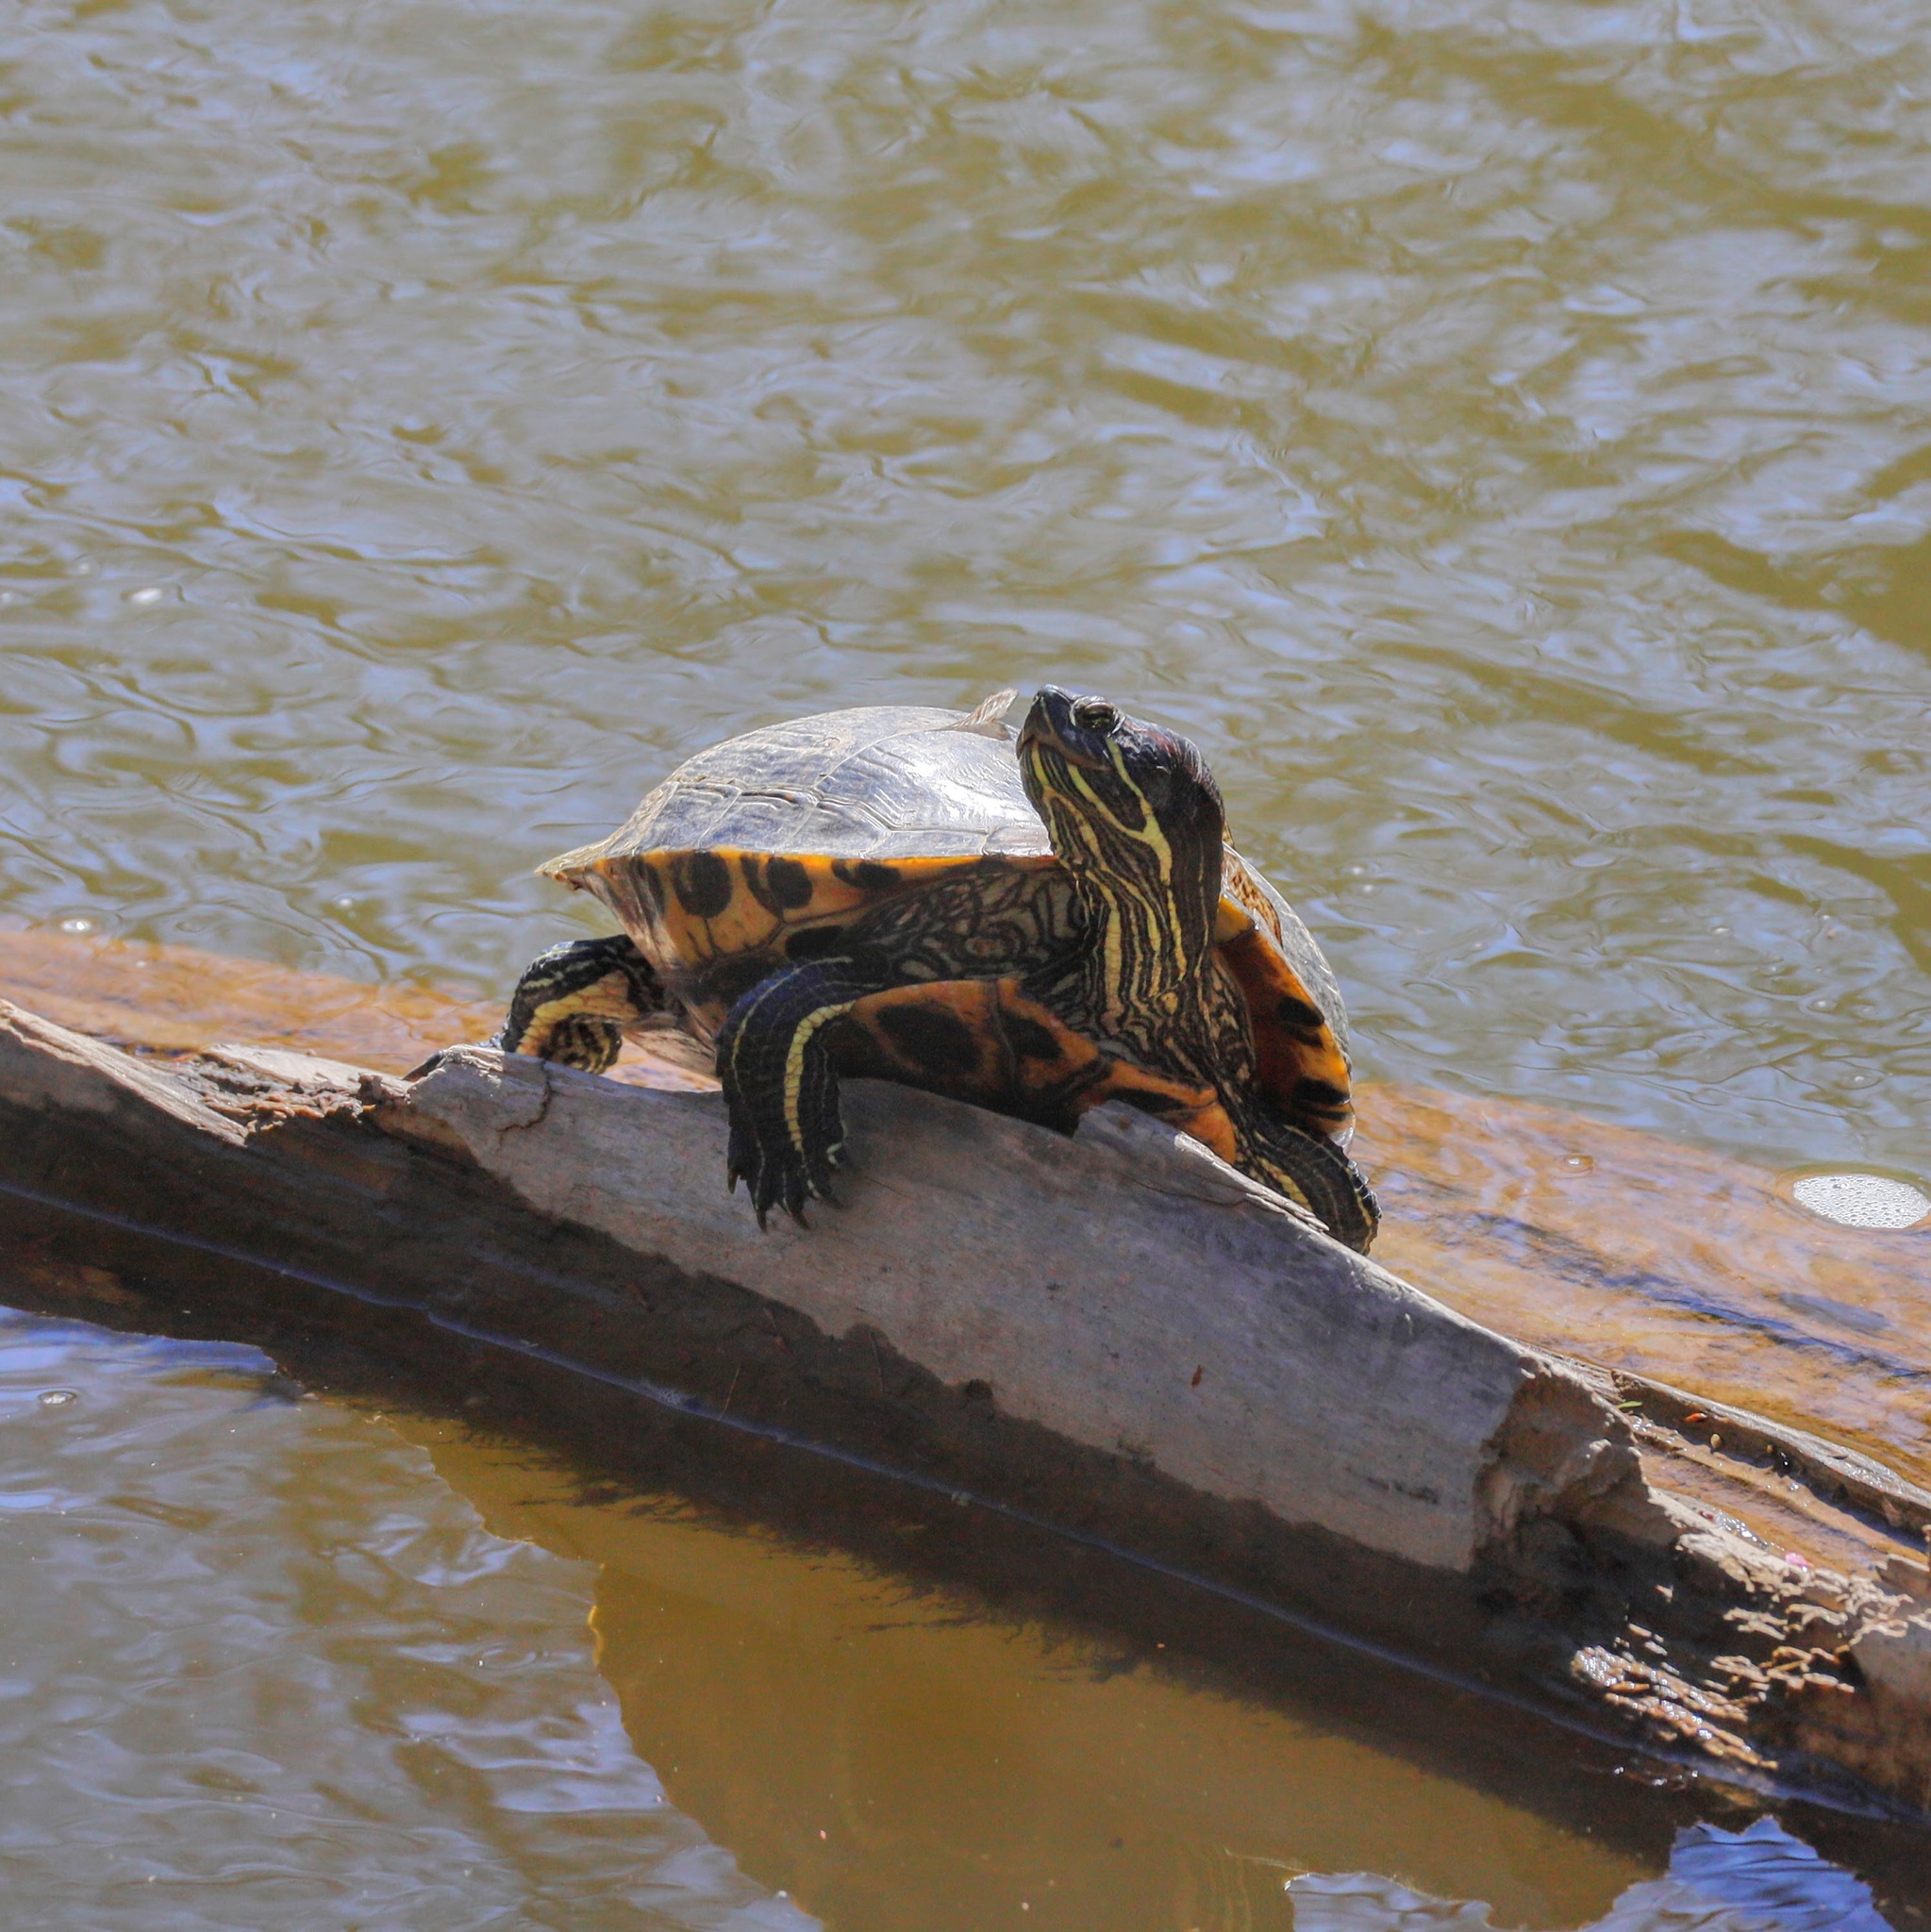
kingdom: Animalia
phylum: Chordata
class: Testudines
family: Emydidae
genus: Trachemys
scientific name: Trachemys scripta
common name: Slider
